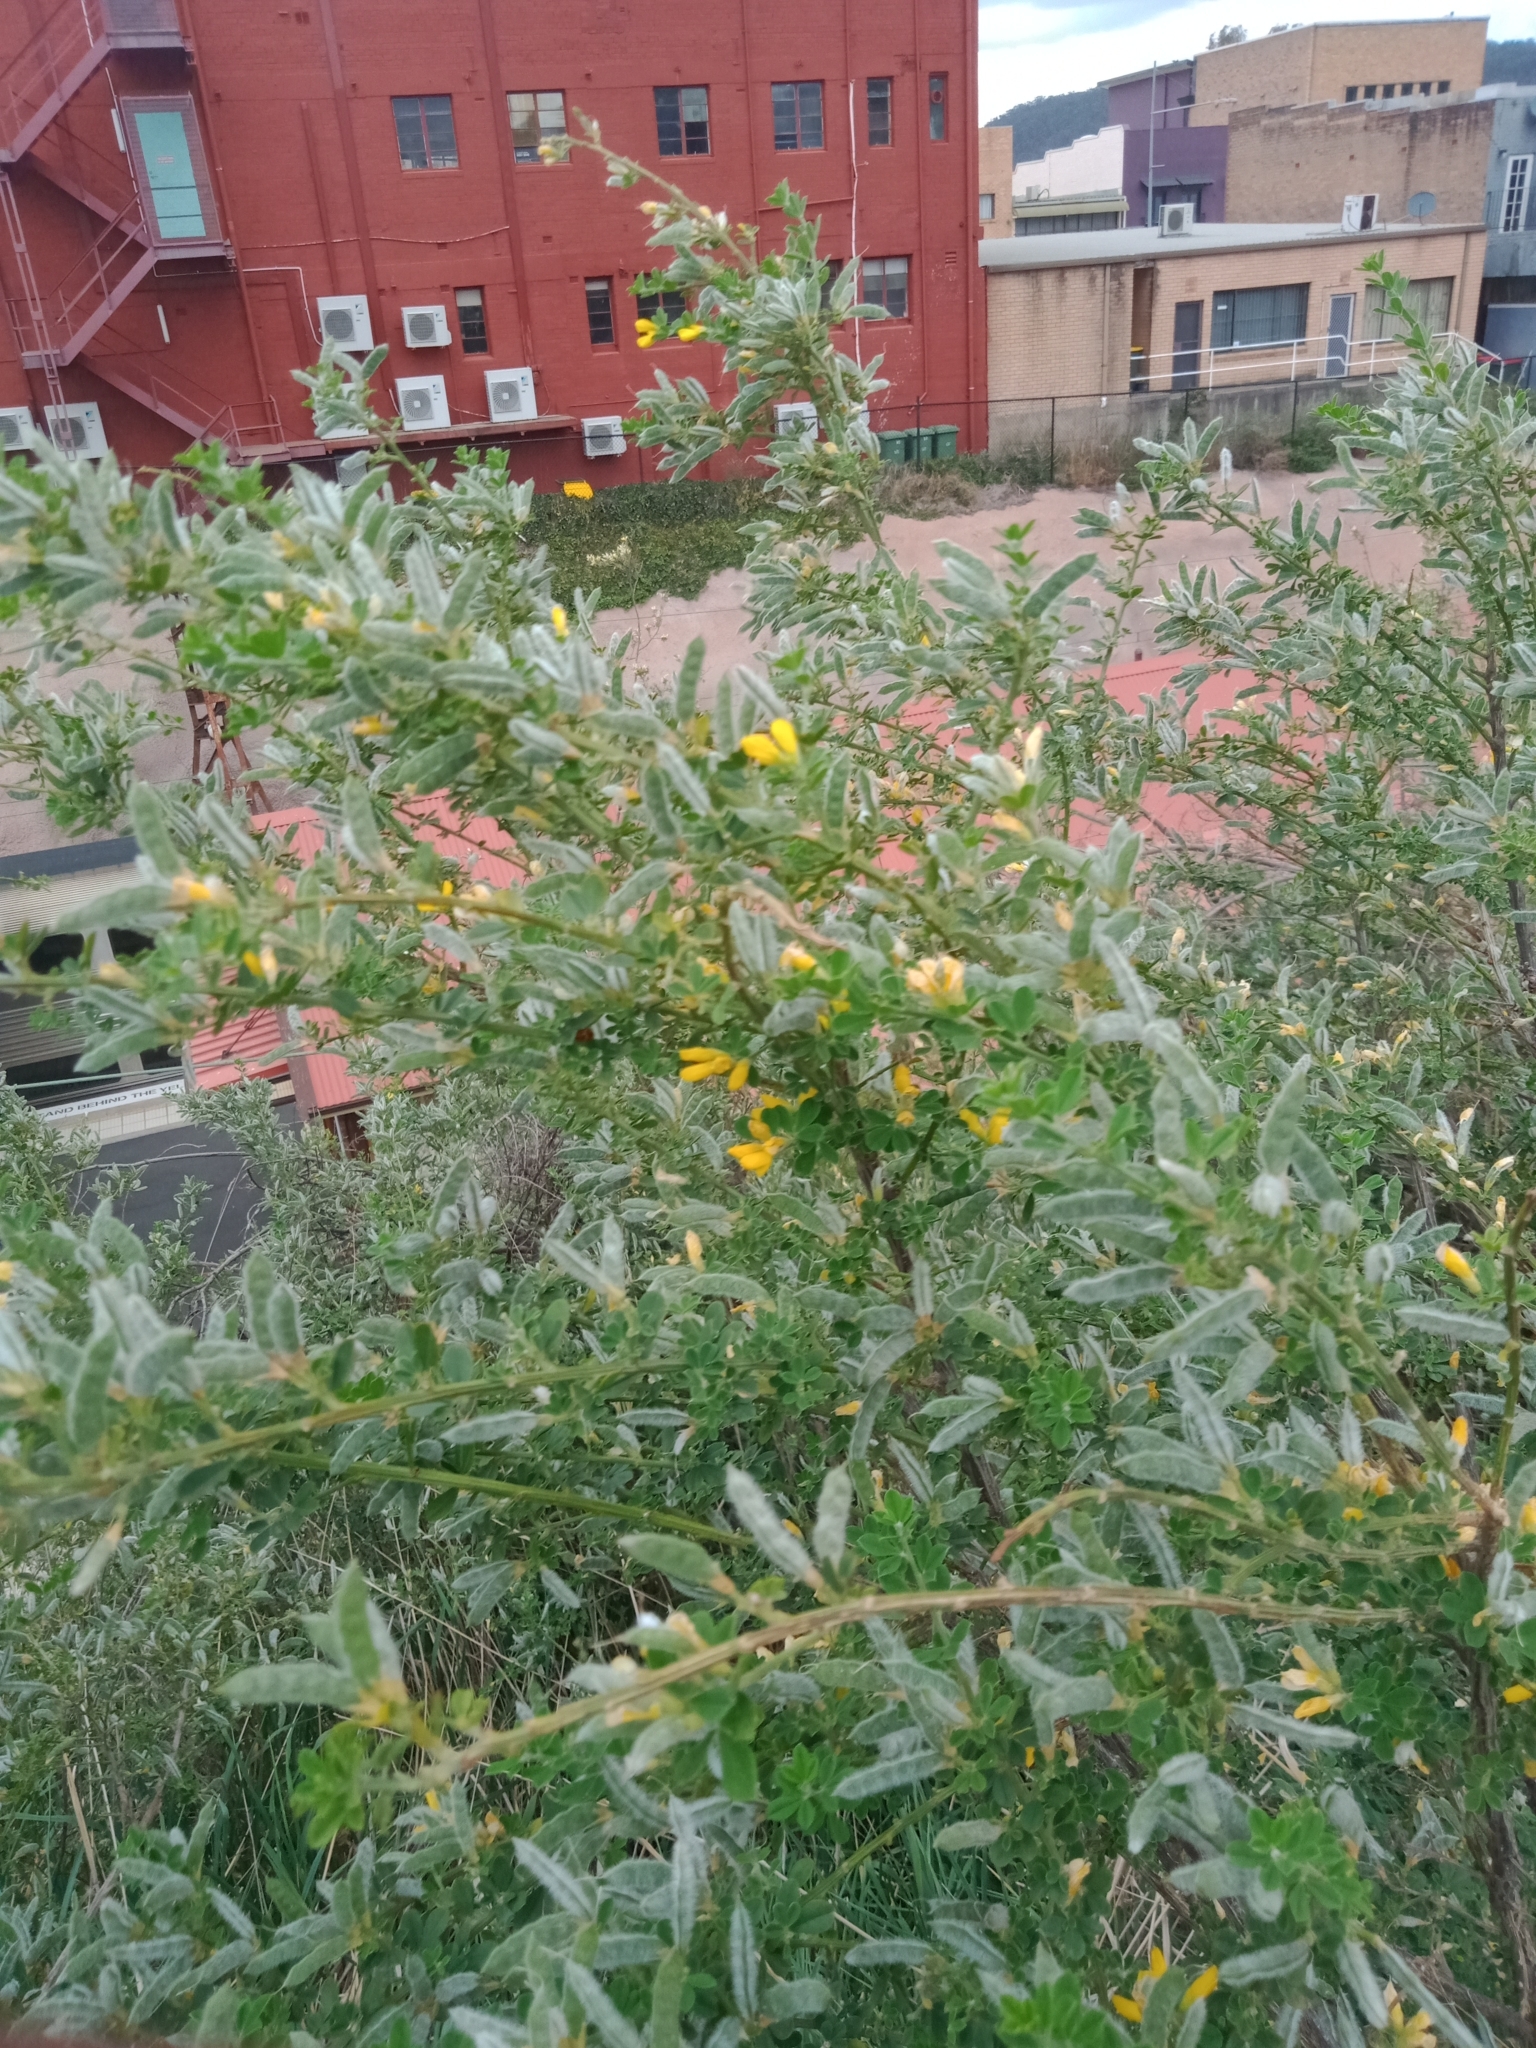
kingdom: Plantae
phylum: Tracheophyta
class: Magnoliopsida
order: Fabales
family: Fabaceae
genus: Genista
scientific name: Genista monspessulana
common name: Montpellier broom
